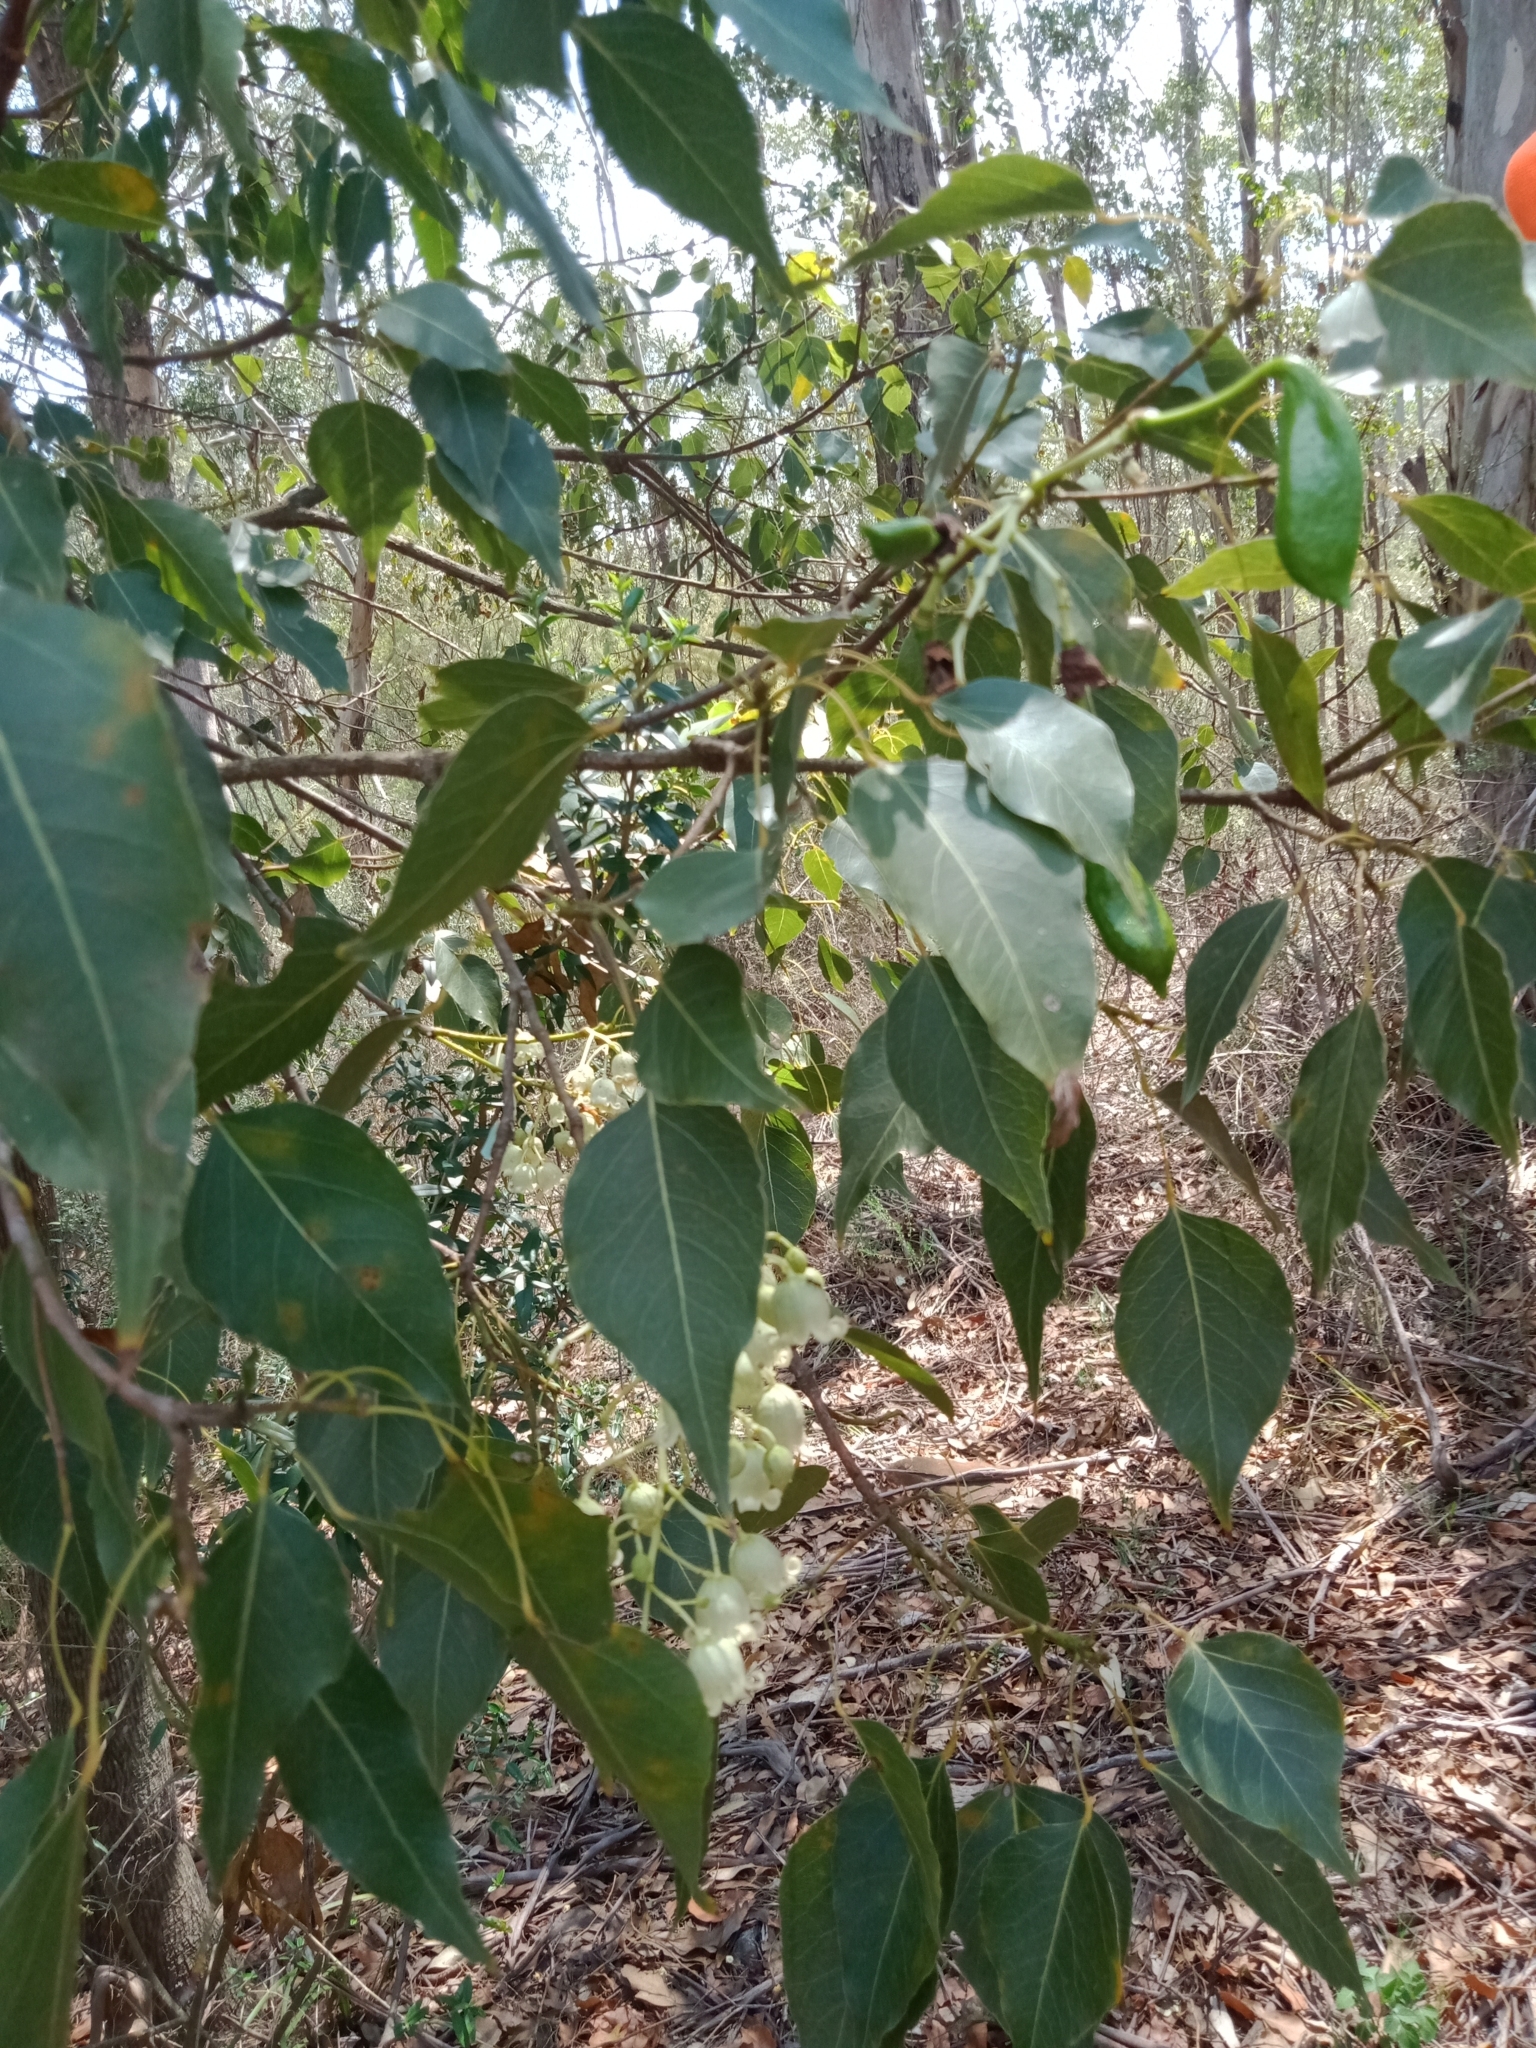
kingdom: Plantae
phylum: Tracheophyta
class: Magnoliopsida
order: Malvales
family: Malvaceae
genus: Brachychiton
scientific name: Brachychiton populneus
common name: Kurrajong
